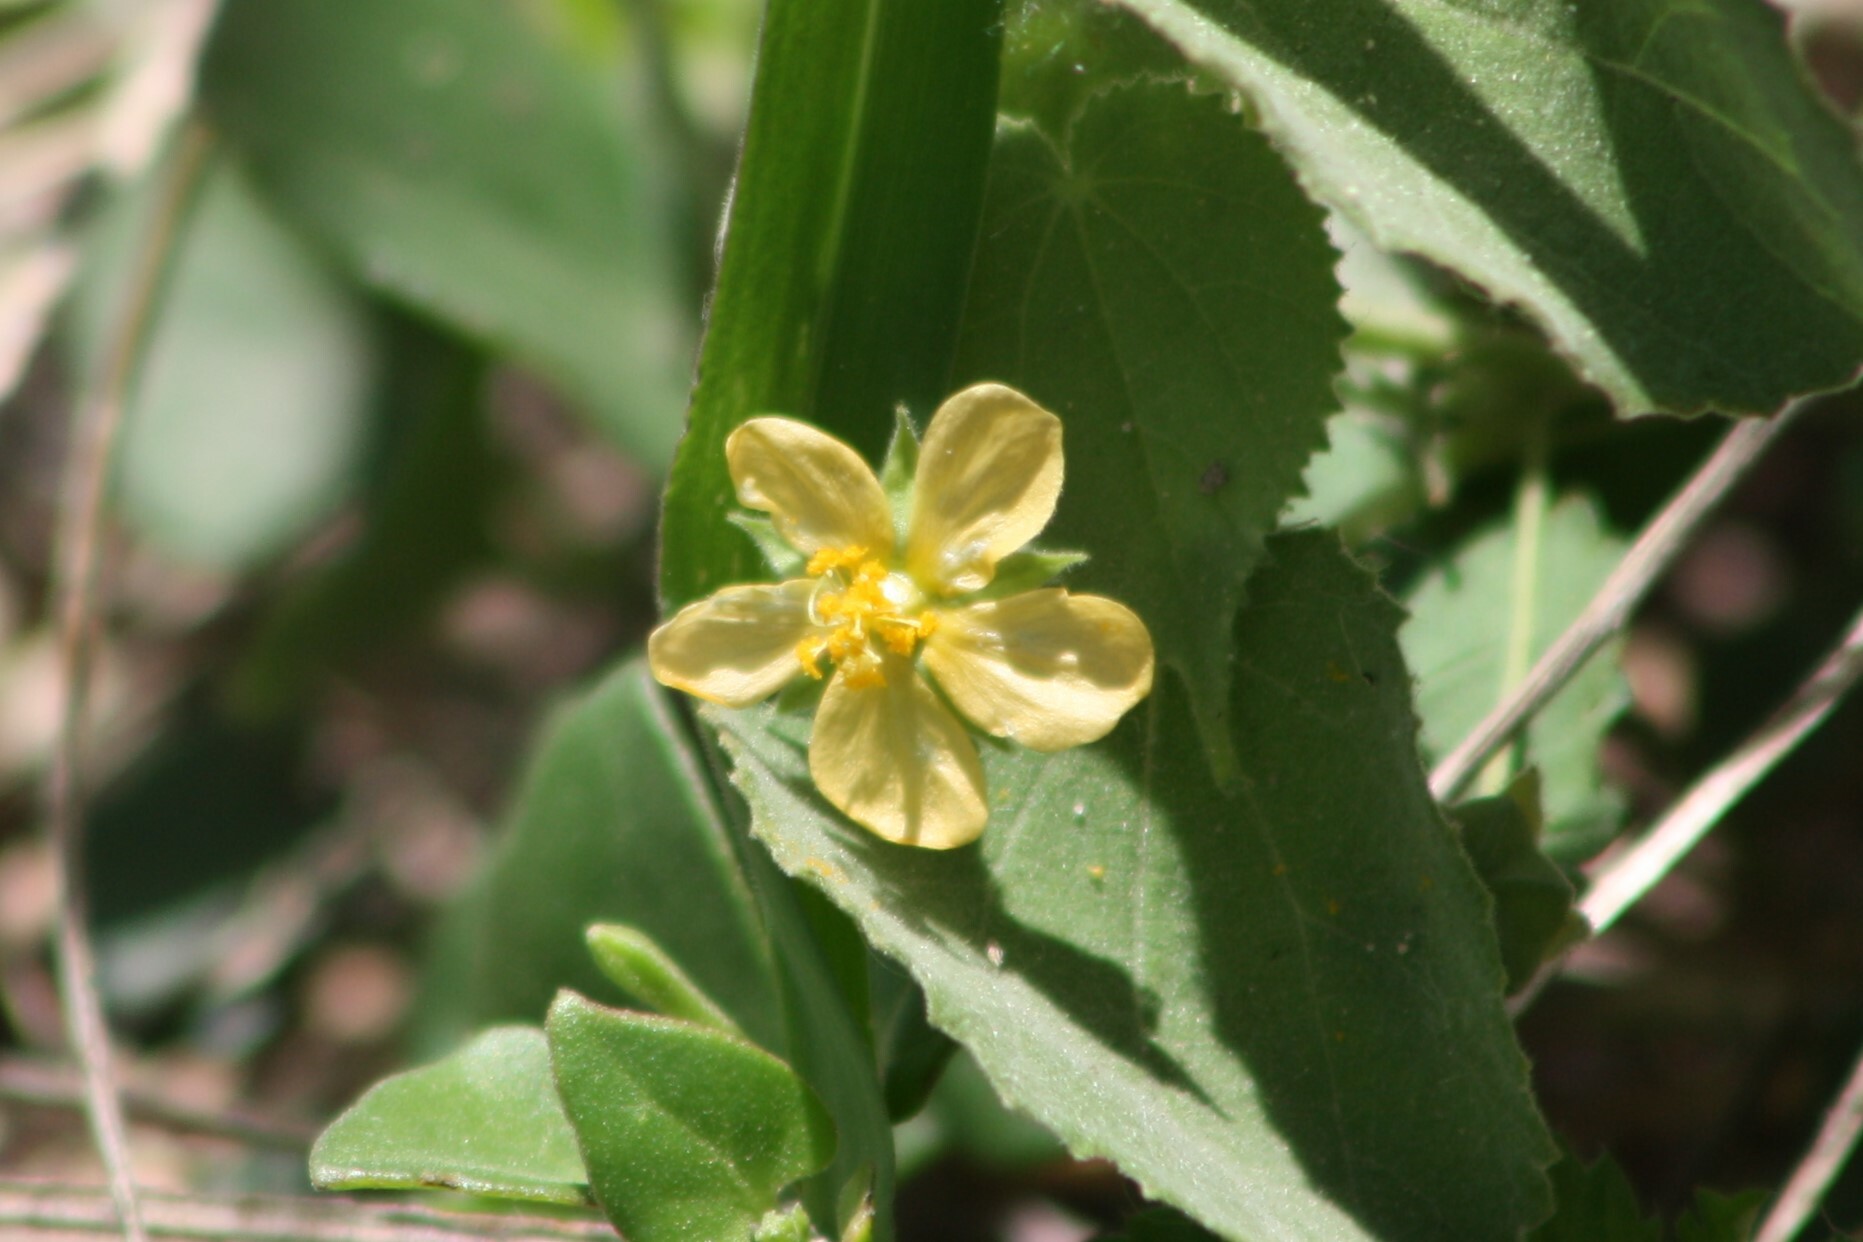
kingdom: Plantae
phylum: Tracheophyta
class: Magnoliopsida
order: Malvales
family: Malvaceae
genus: Abutilon
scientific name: Abutilon viscosum
